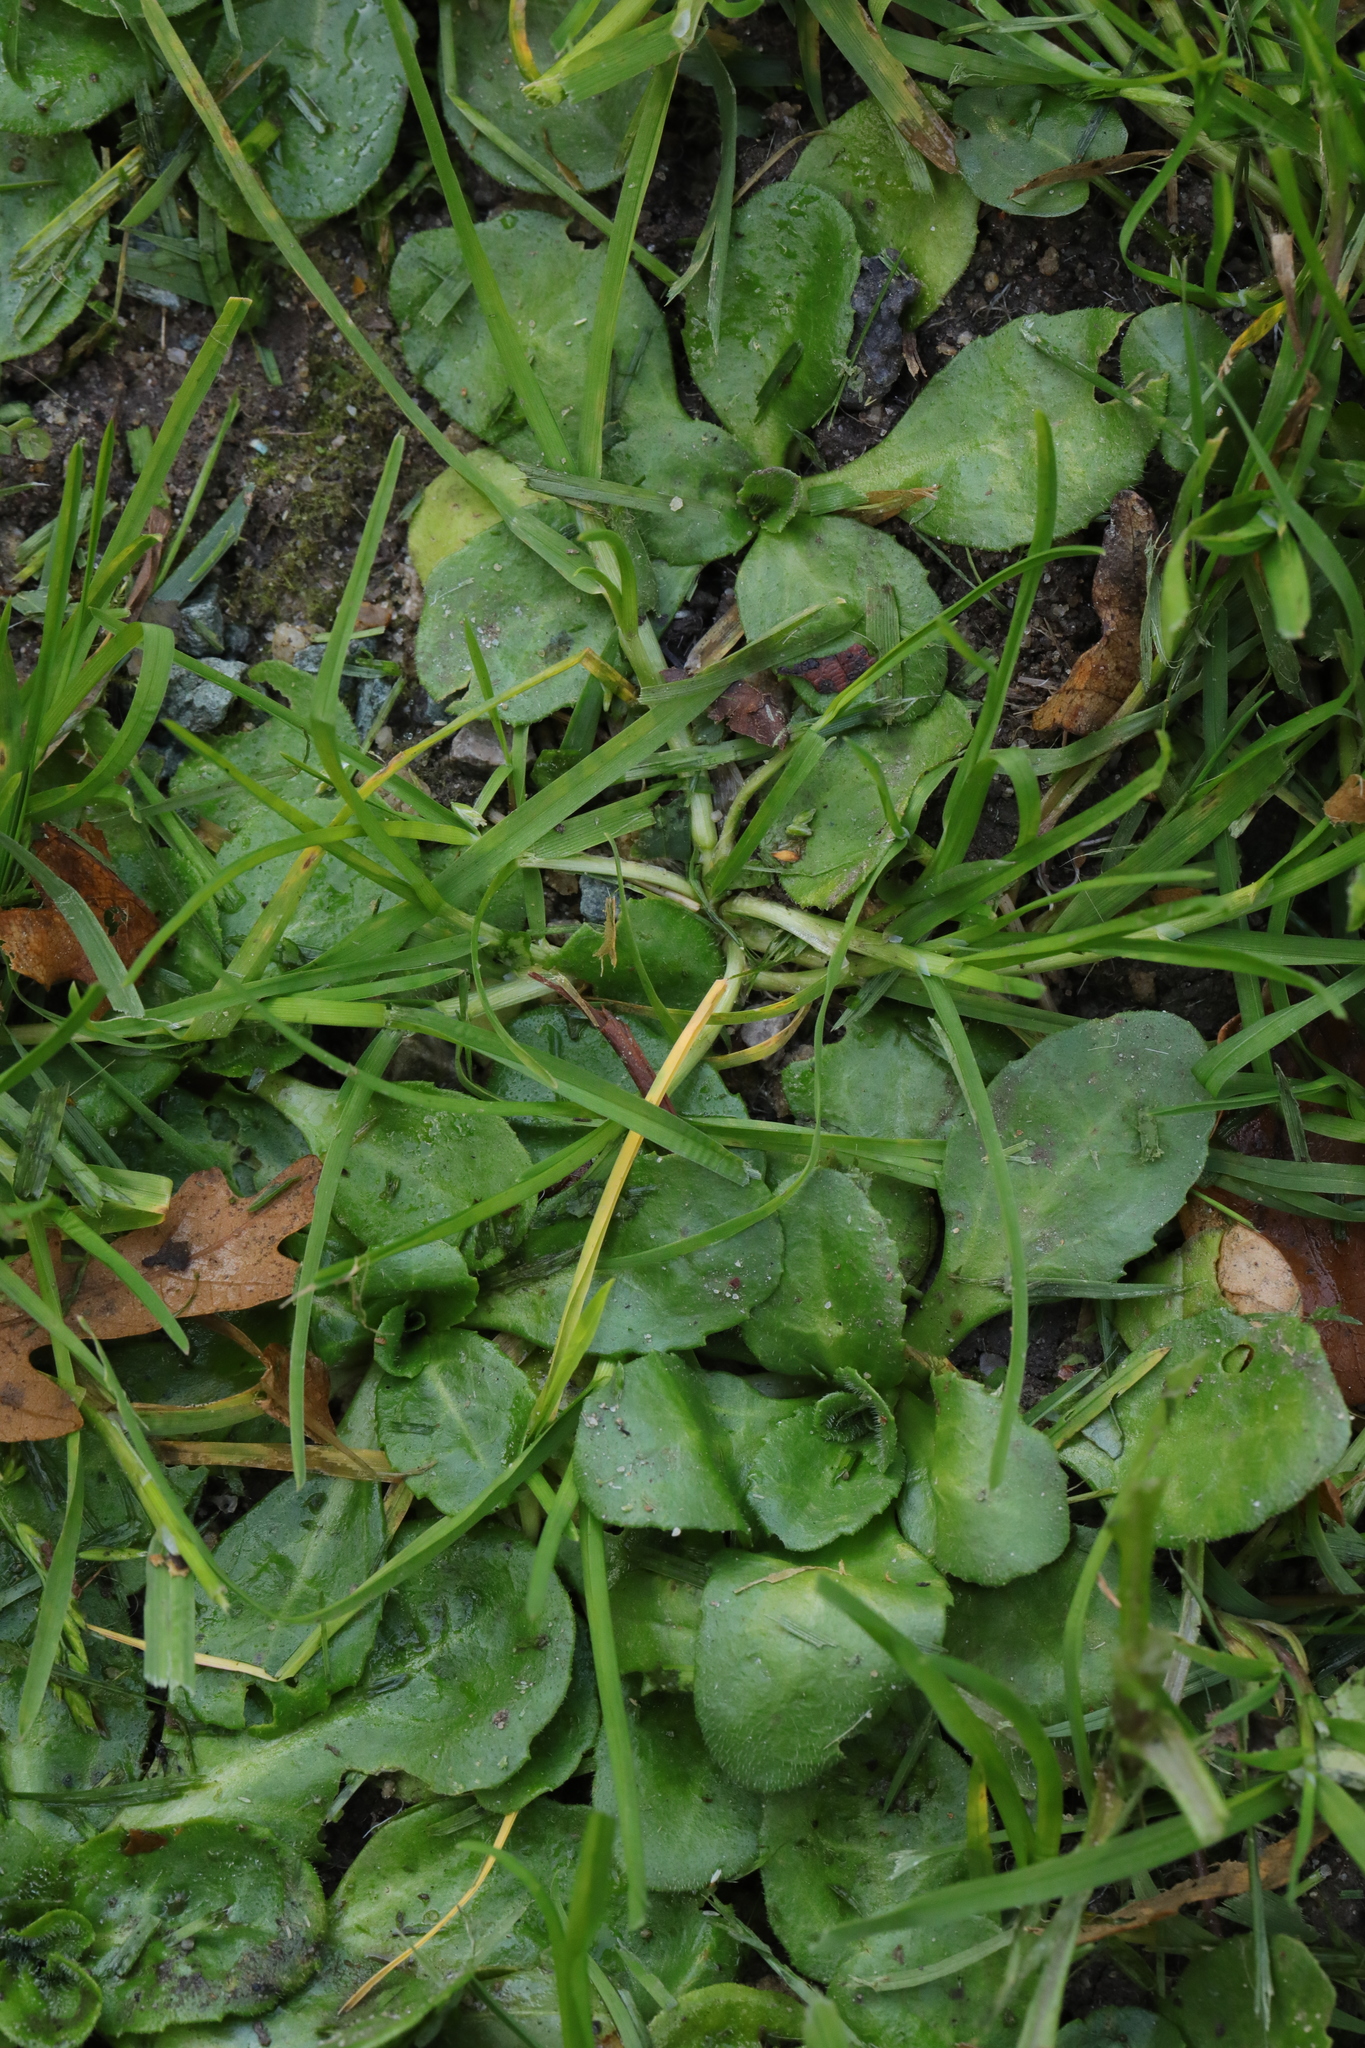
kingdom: Plantae
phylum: Tracheophyta
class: Magnoliopsida
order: Asterales
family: Asteraceae
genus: Bellis
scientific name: Bellis perennis
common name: Lawndaisy
